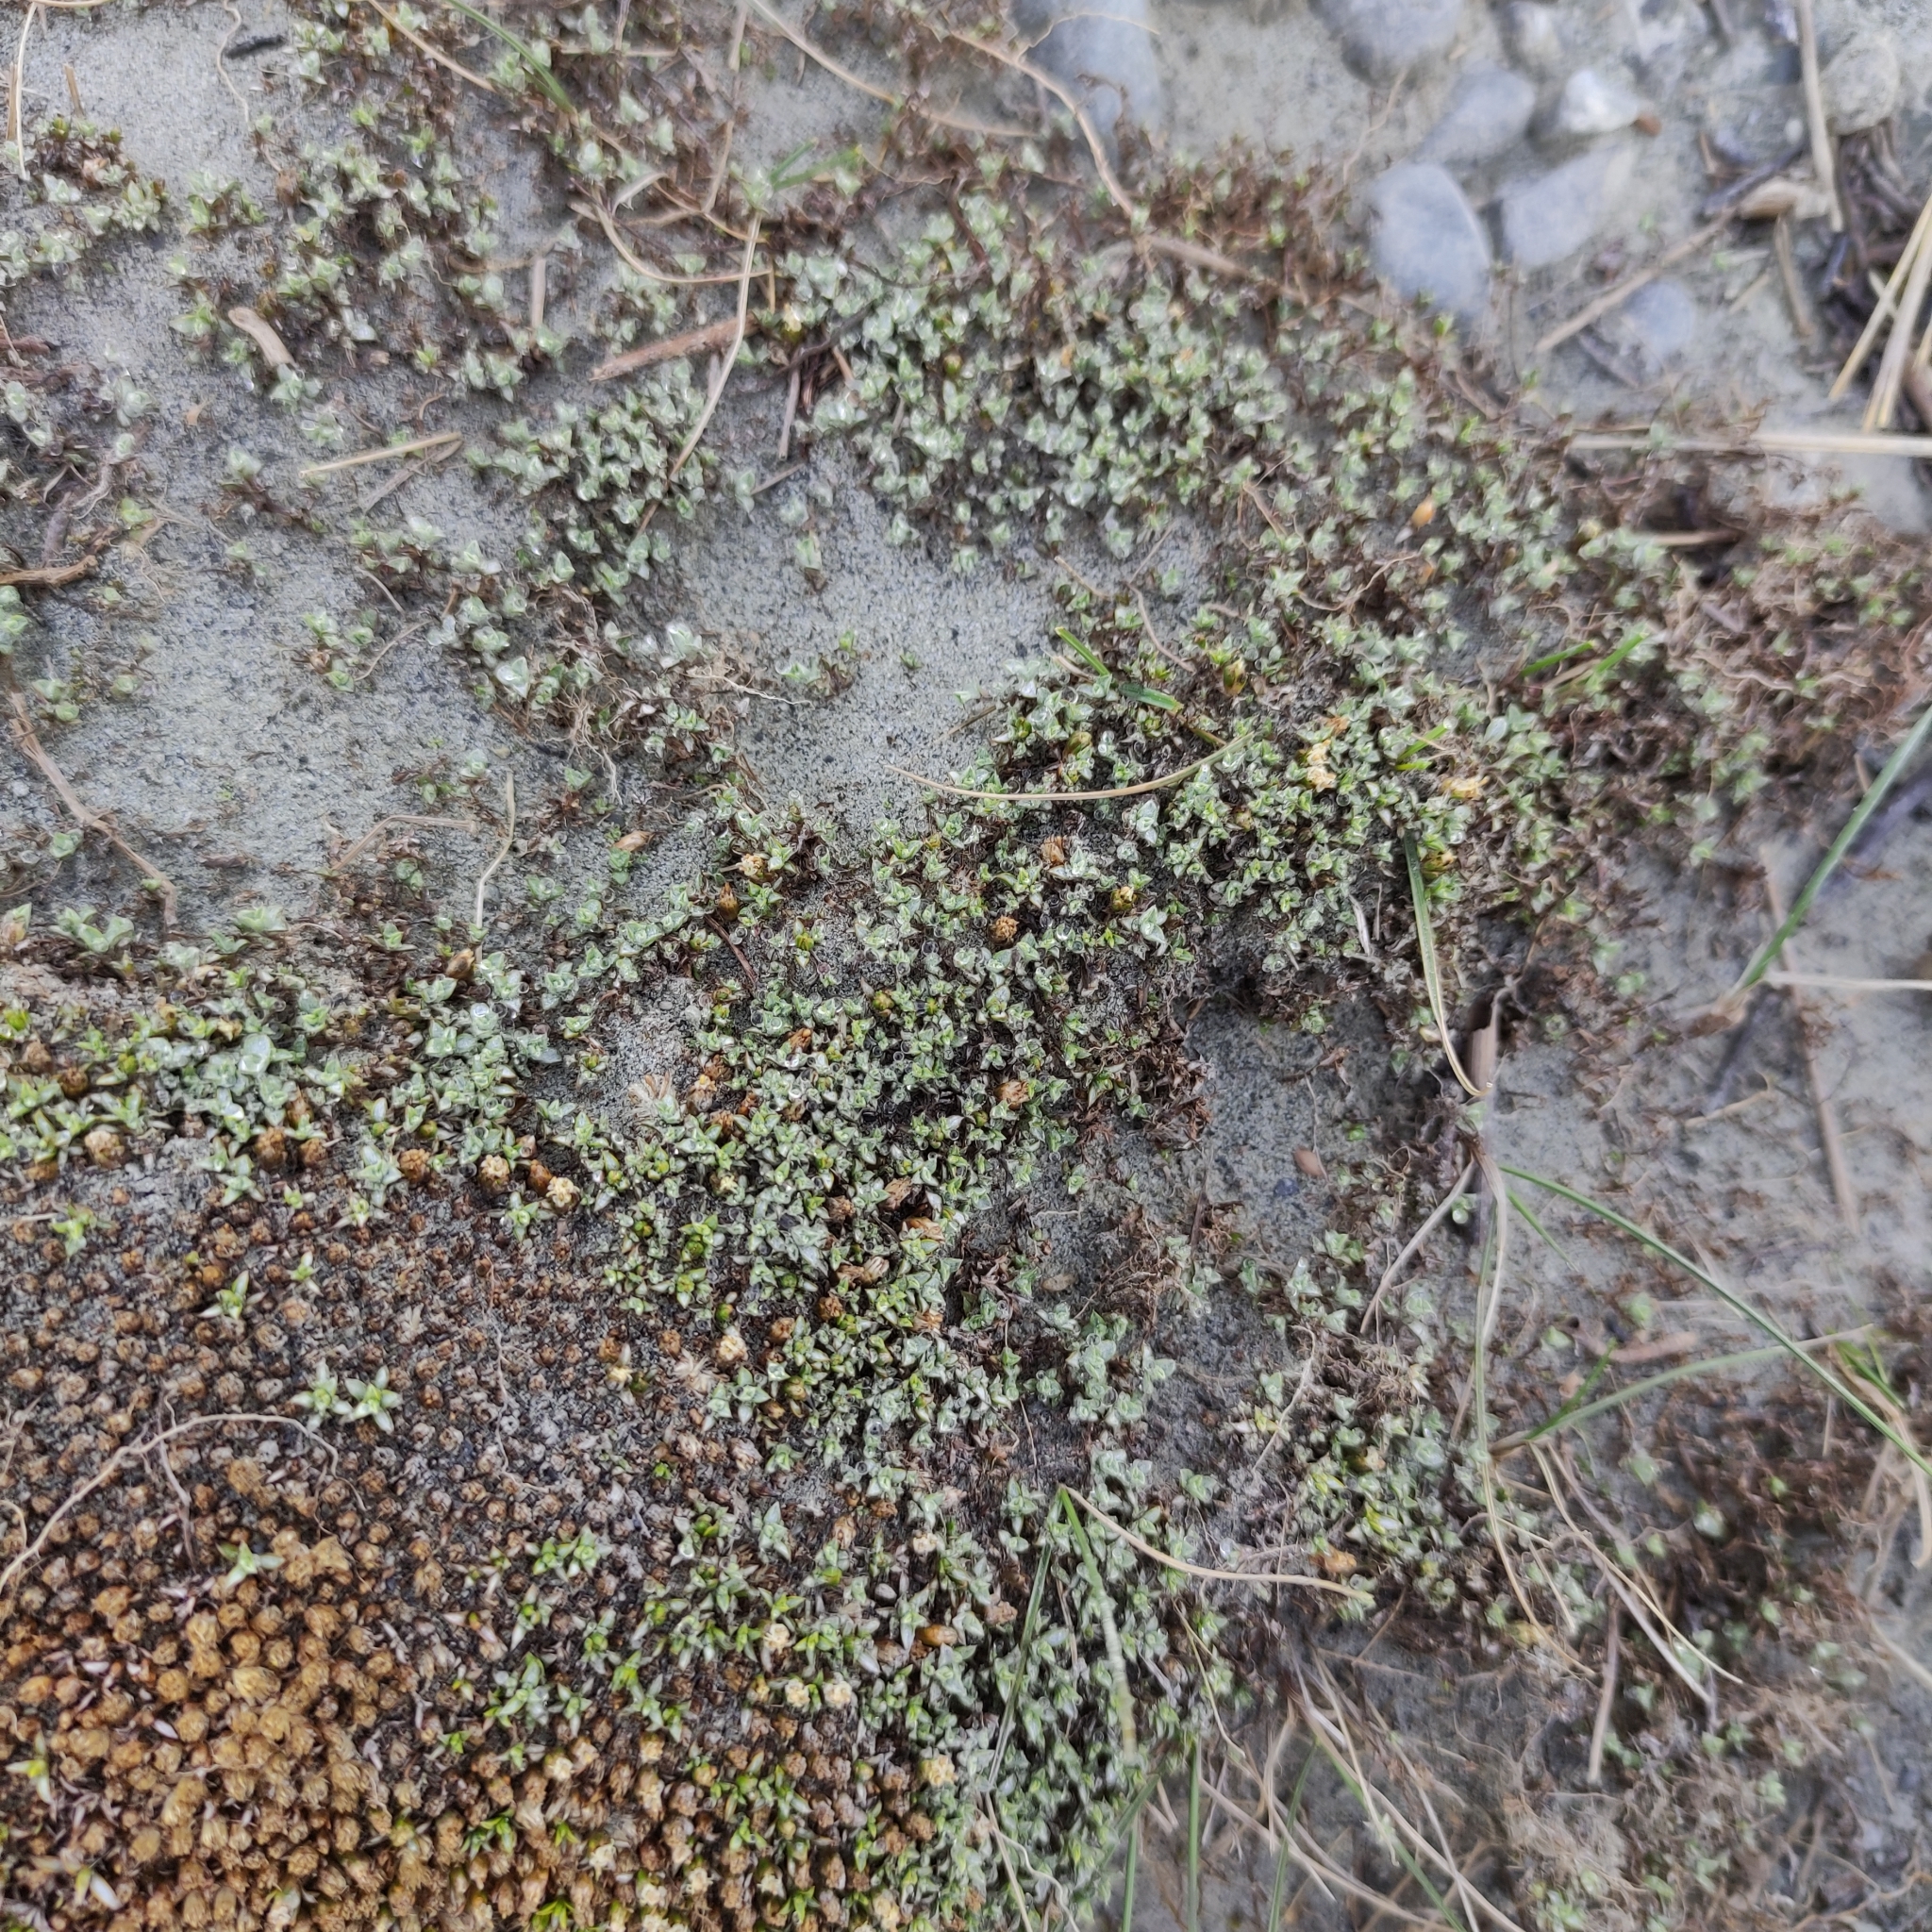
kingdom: Plantae
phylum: Tracheophyta
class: Magnoliopsida
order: Asterales
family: Asteraceae
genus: Raoulia
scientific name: Raoulia tenuicaulis
